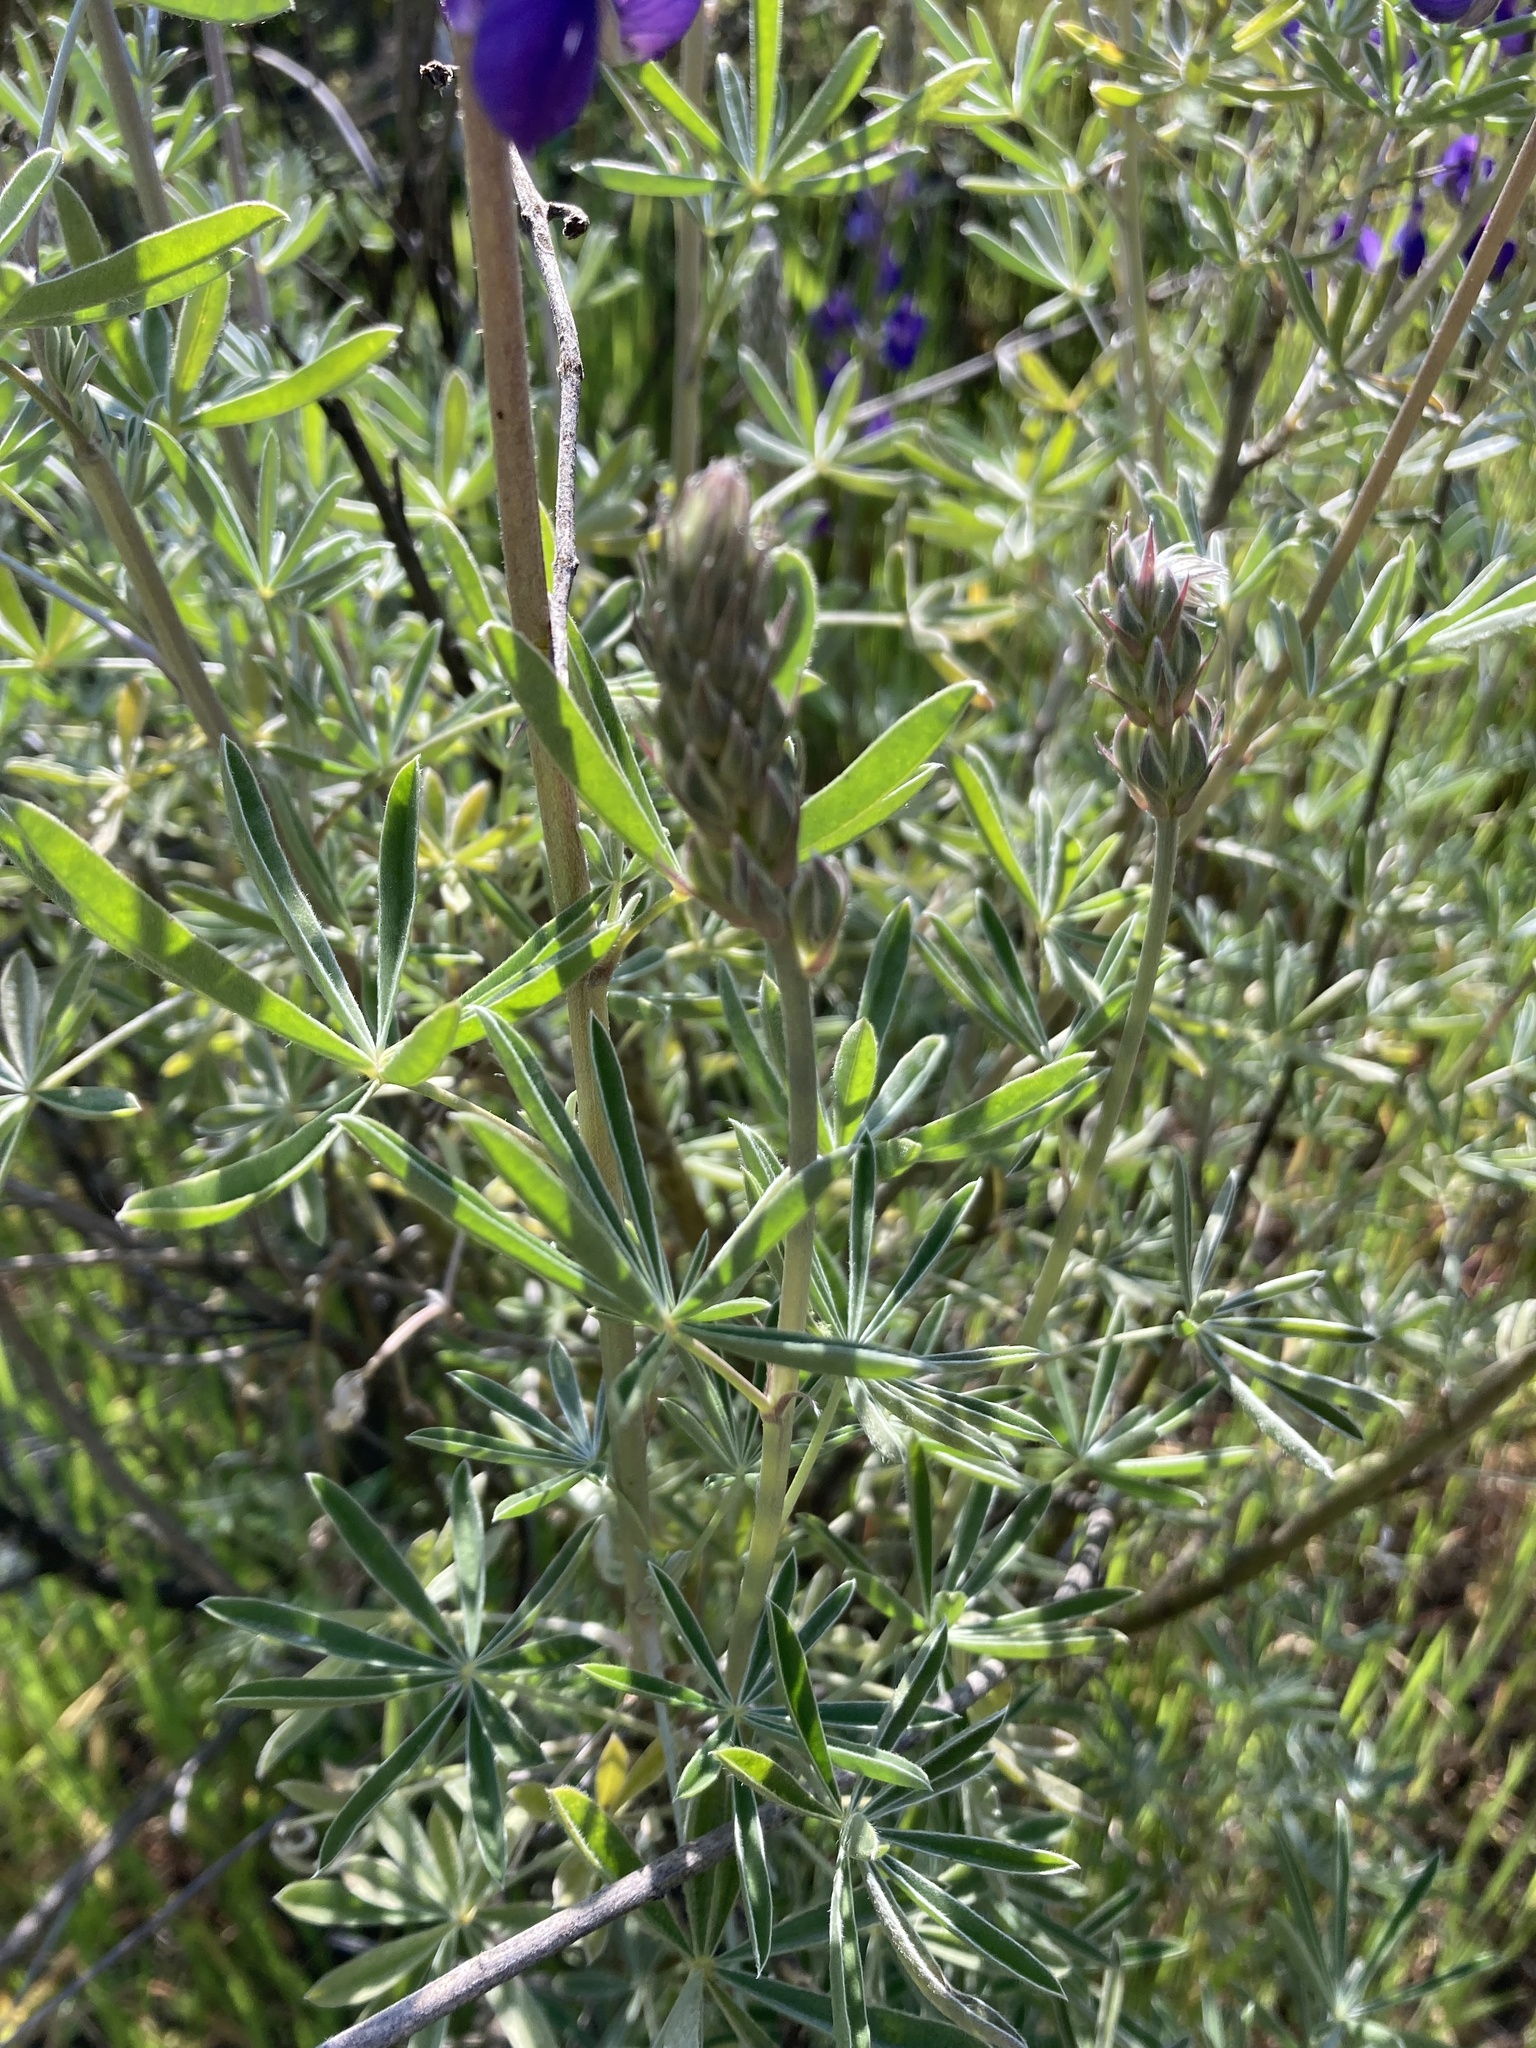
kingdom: Plantae
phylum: Tracheophyta
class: Magnoliopsida
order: Fabales
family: Fabaceae
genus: Lupinus
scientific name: Lupinus albifrons
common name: Foothill lupine
